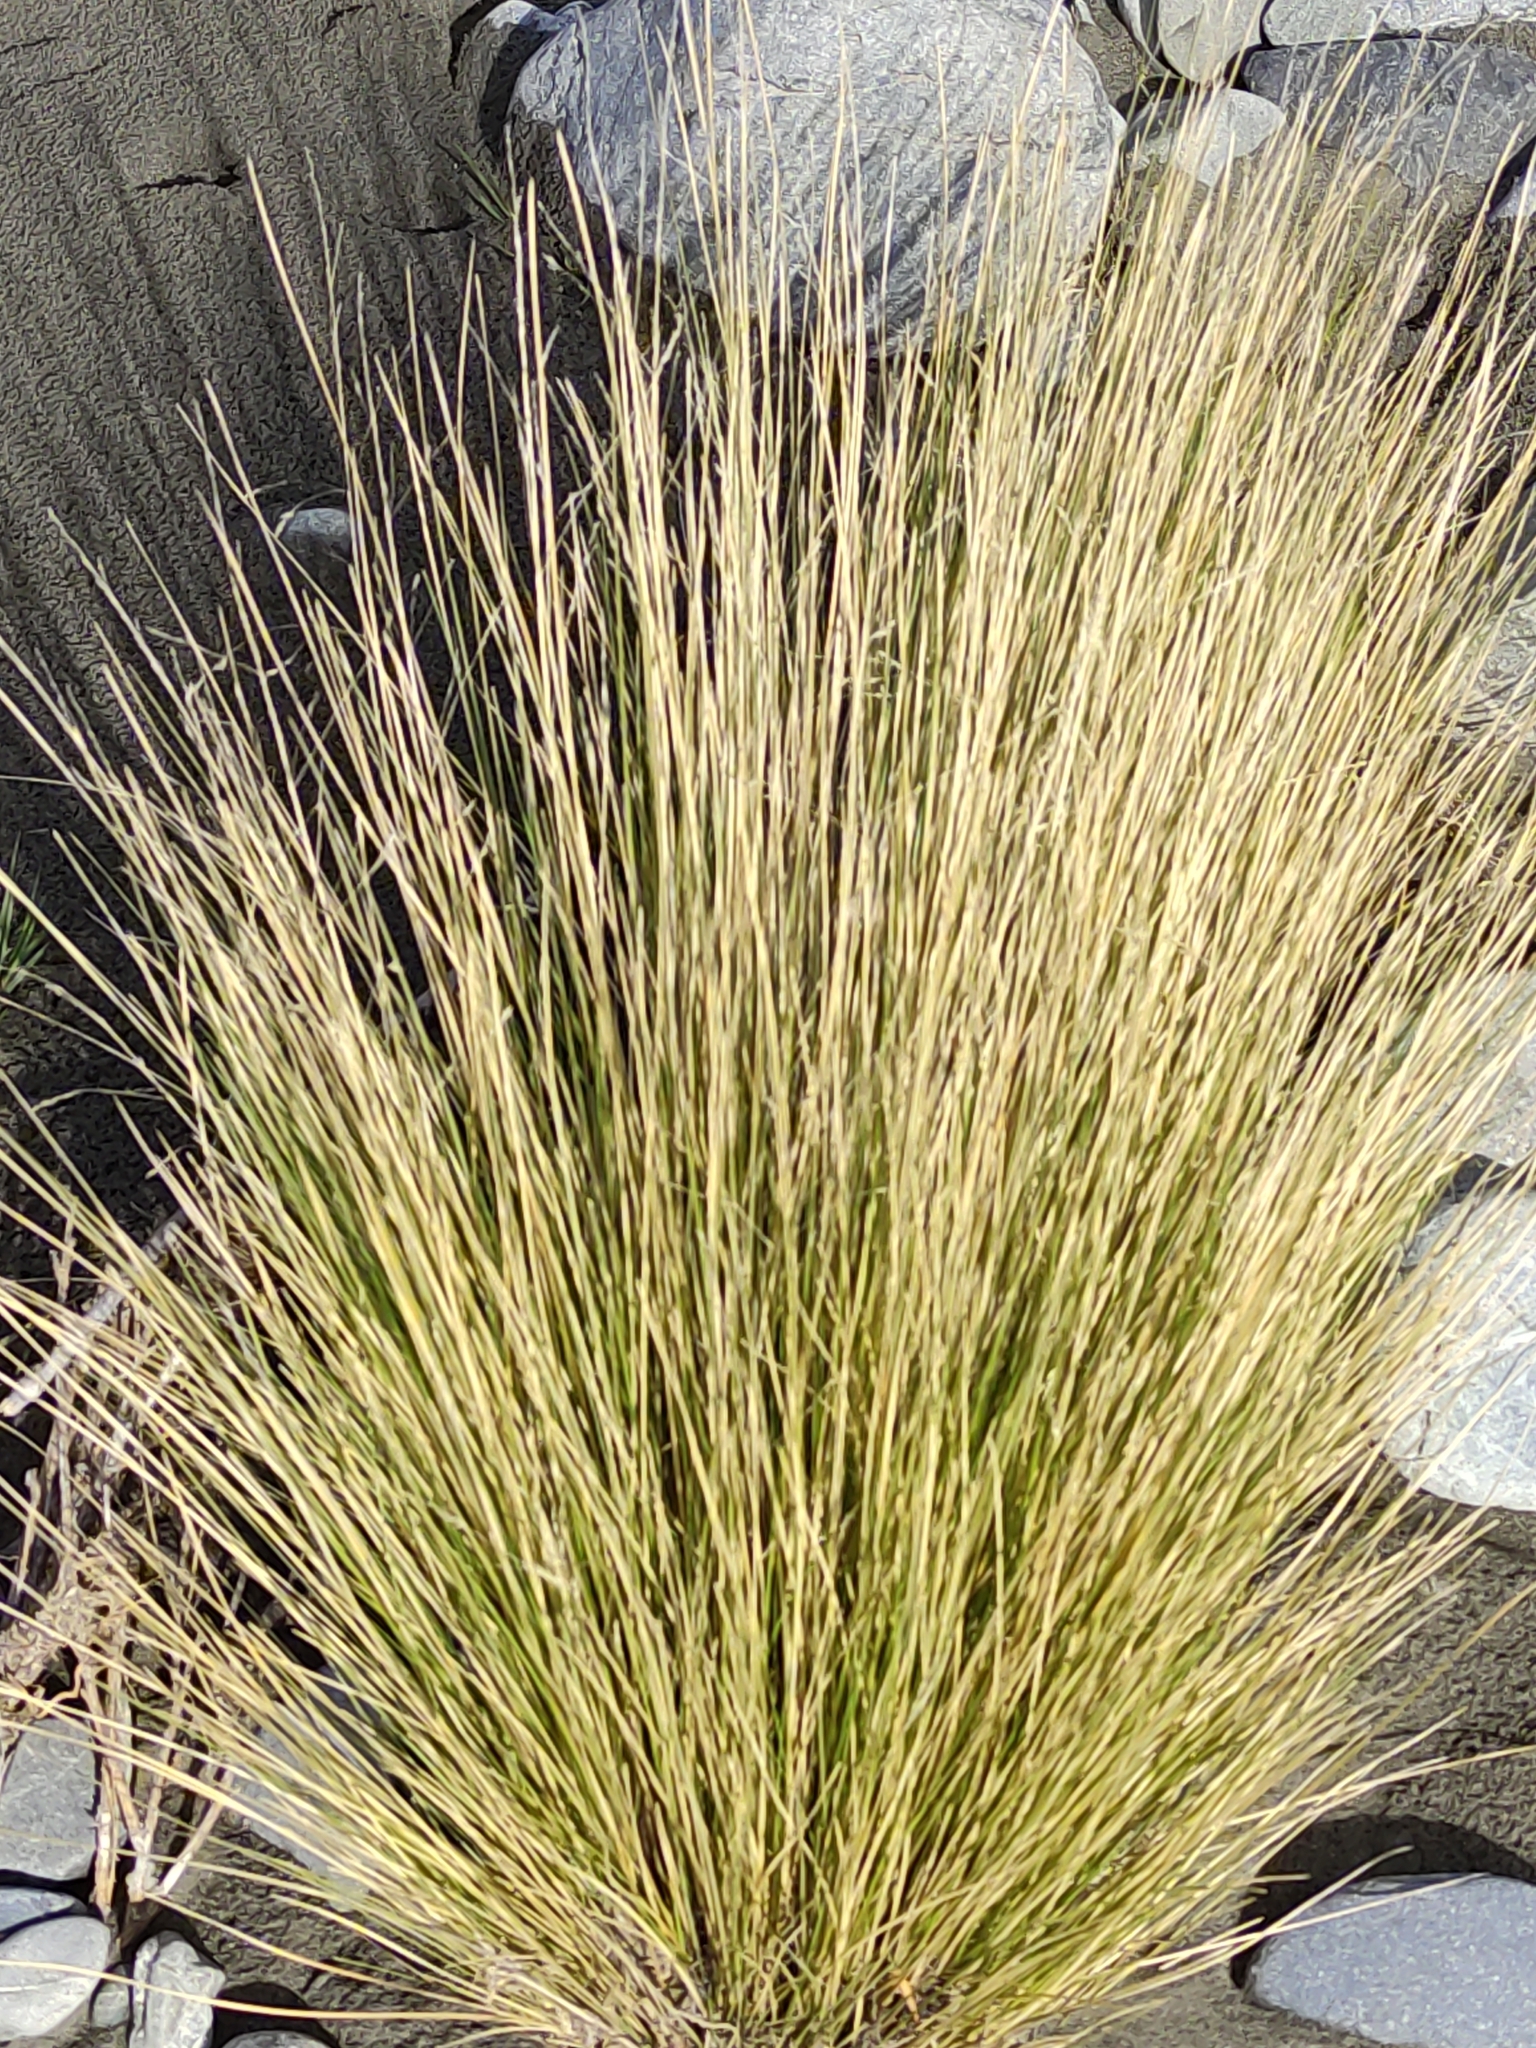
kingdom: Plantae
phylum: Tracheophyta
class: Liliopsida
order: Poales
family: Poaceae
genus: Poa
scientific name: Poa cita
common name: Silver tussock
